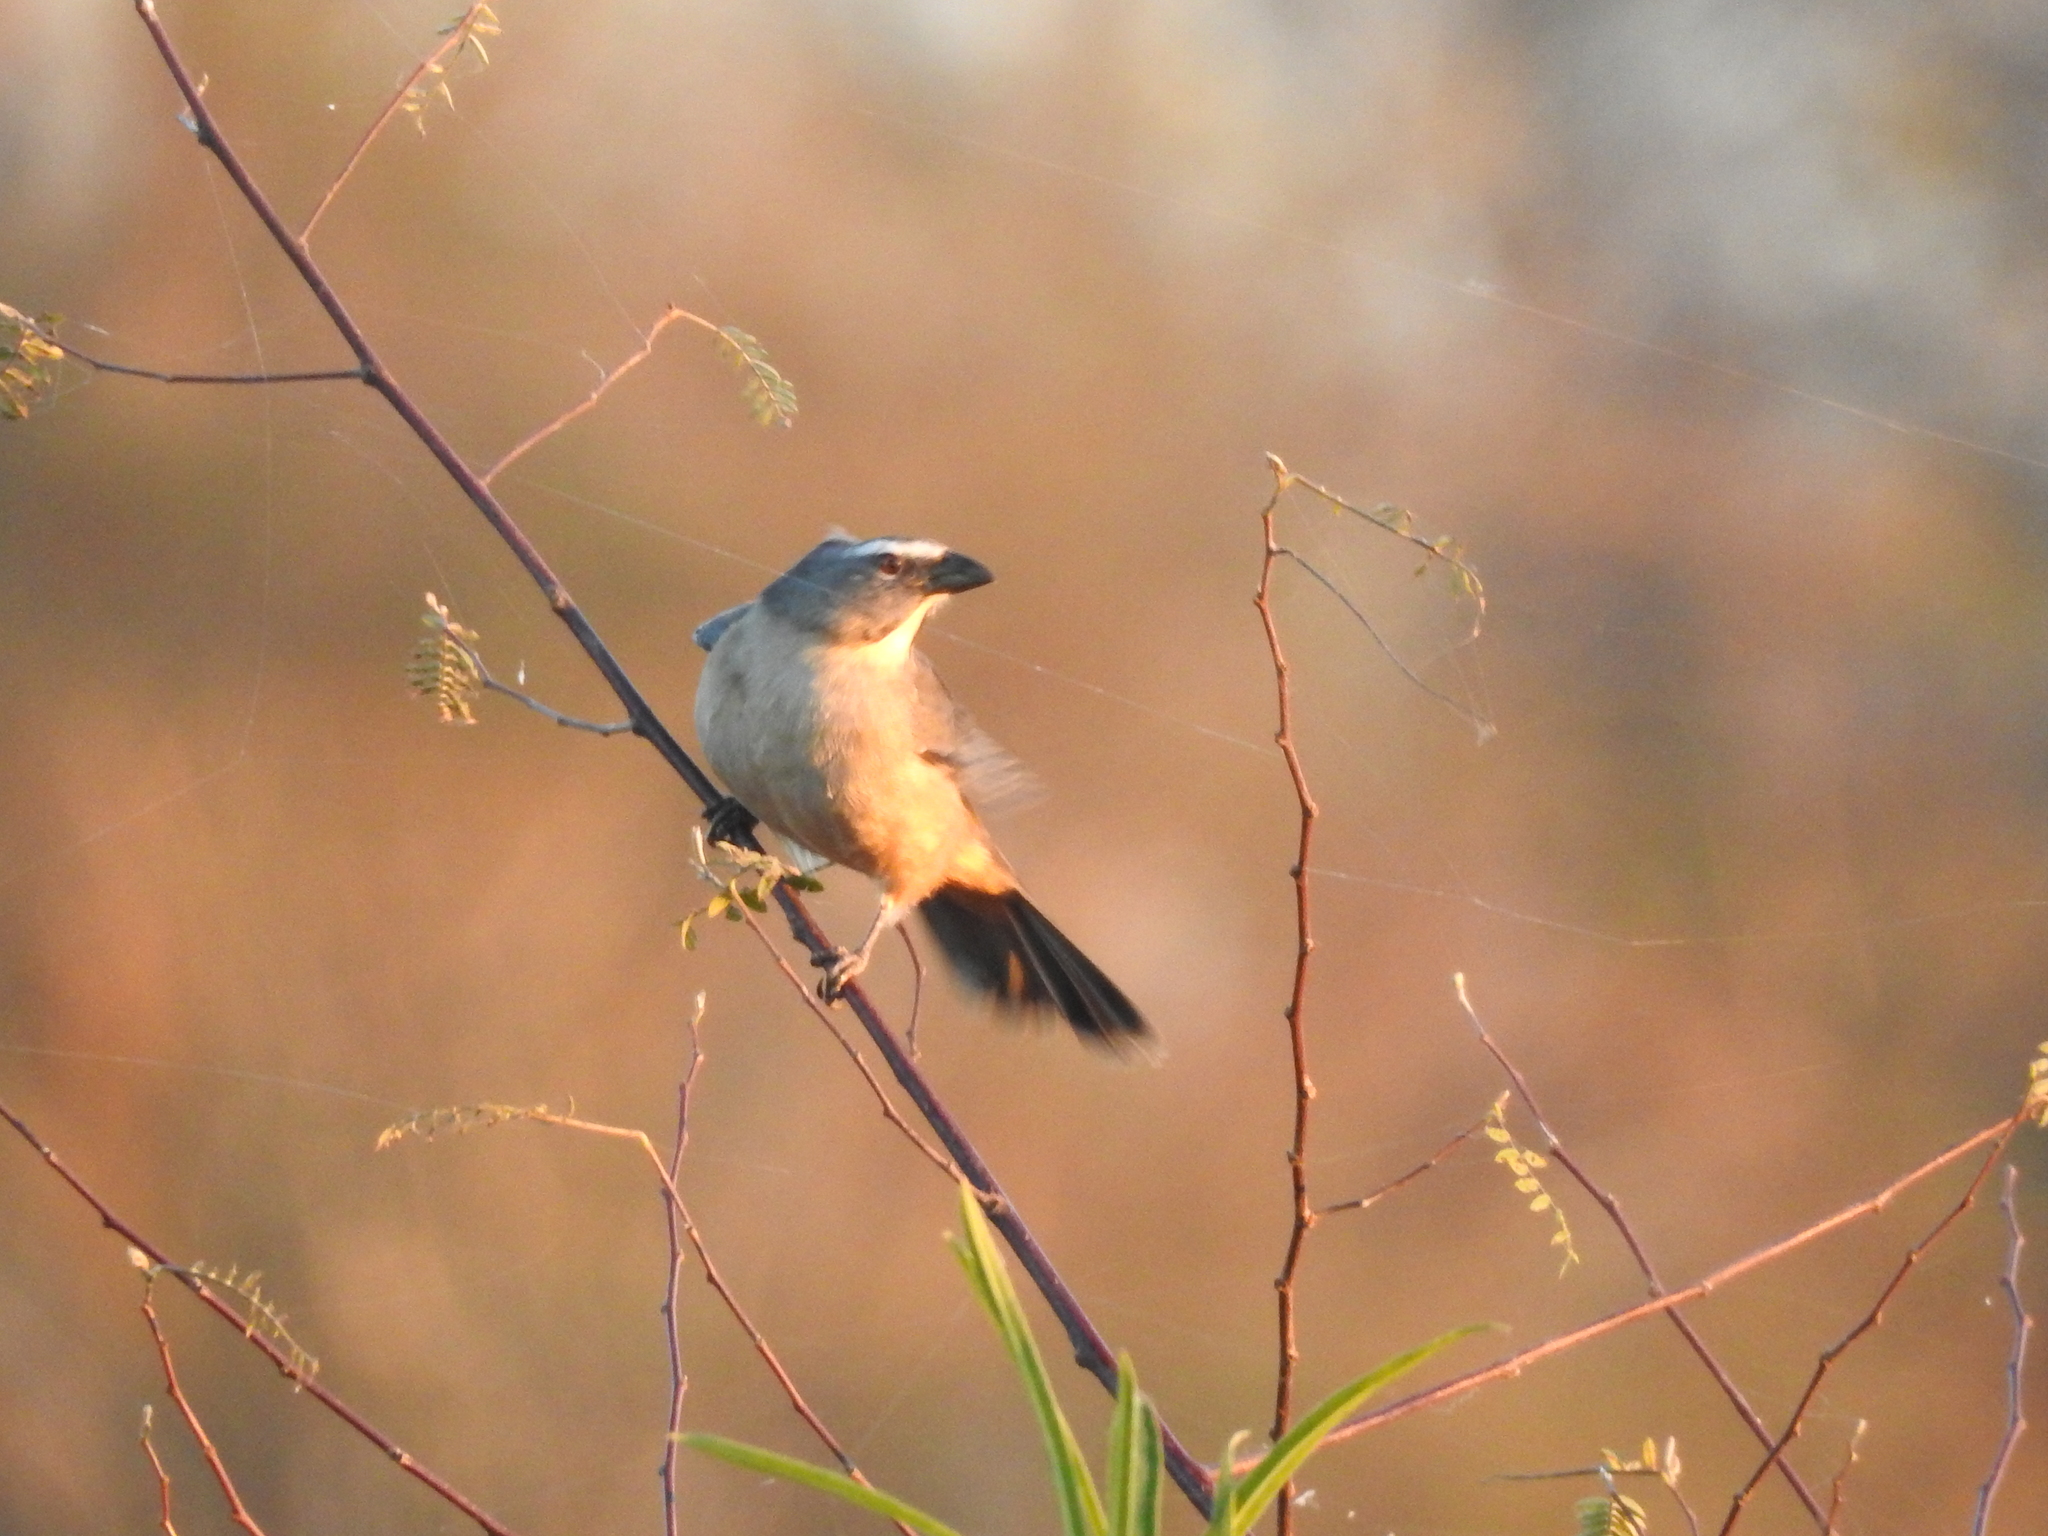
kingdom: Animalia
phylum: Chordata
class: Aves
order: Passeriformes
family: Thraupidae
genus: Saltator
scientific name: Saltator coerulescens
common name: Grayish saltator
